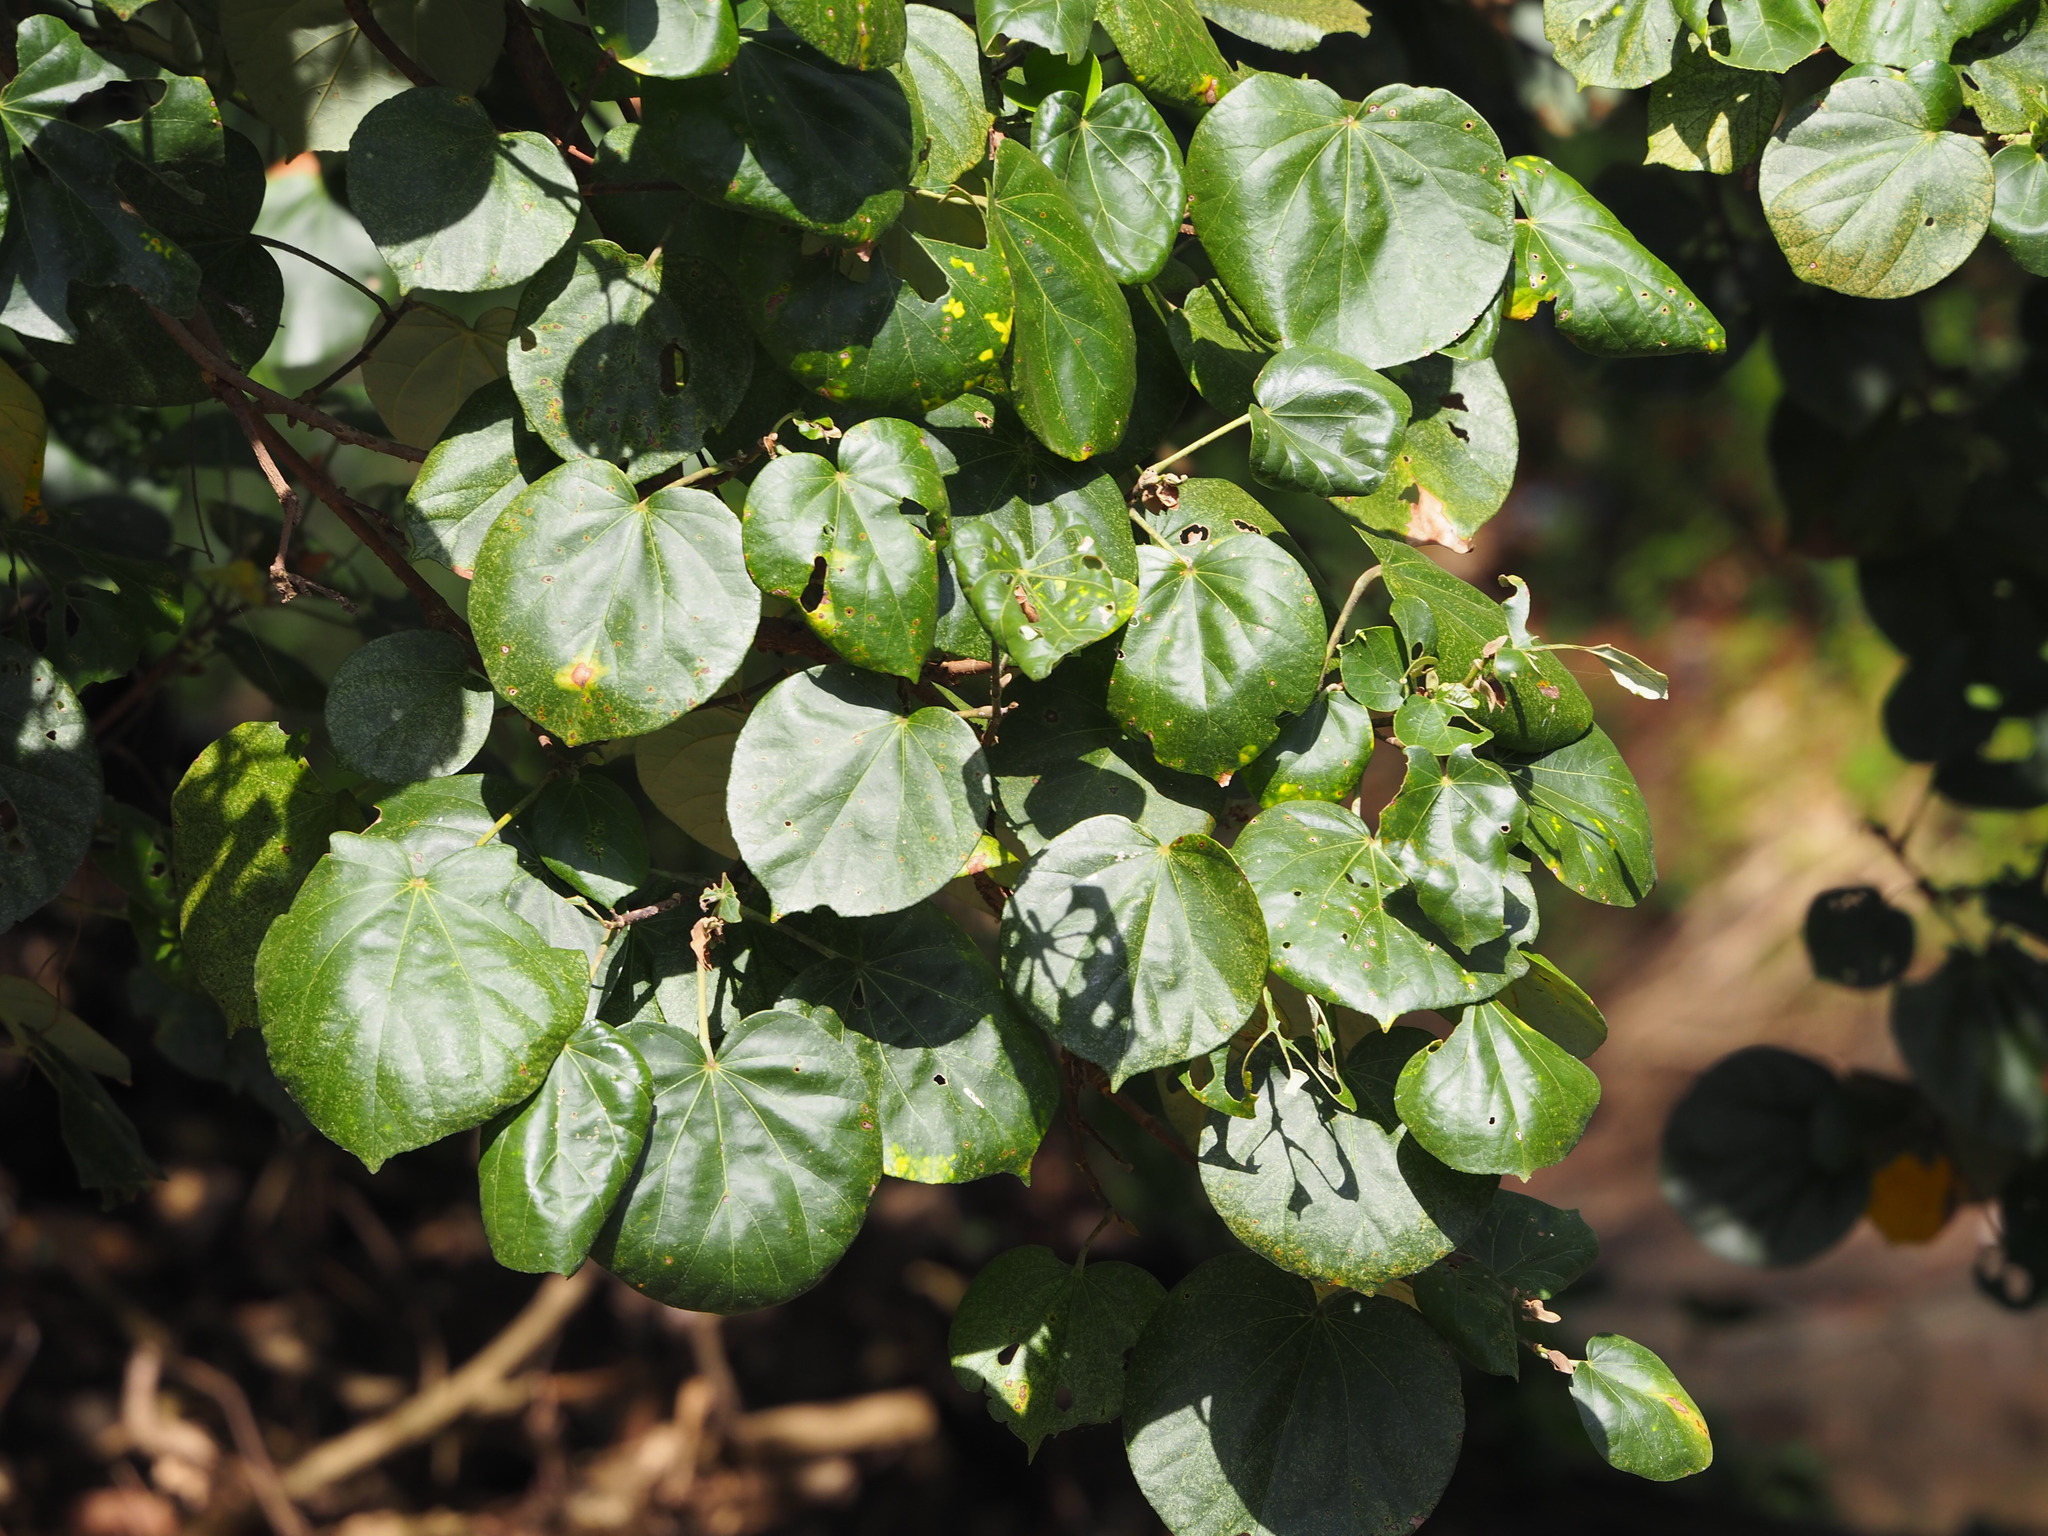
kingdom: Plantae
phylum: Tracheophyta
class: Magnoliopsida
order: Malvales
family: Malvaceae
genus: Talipariti
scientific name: Talipariti tiliaceum
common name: Sea hibiscus
